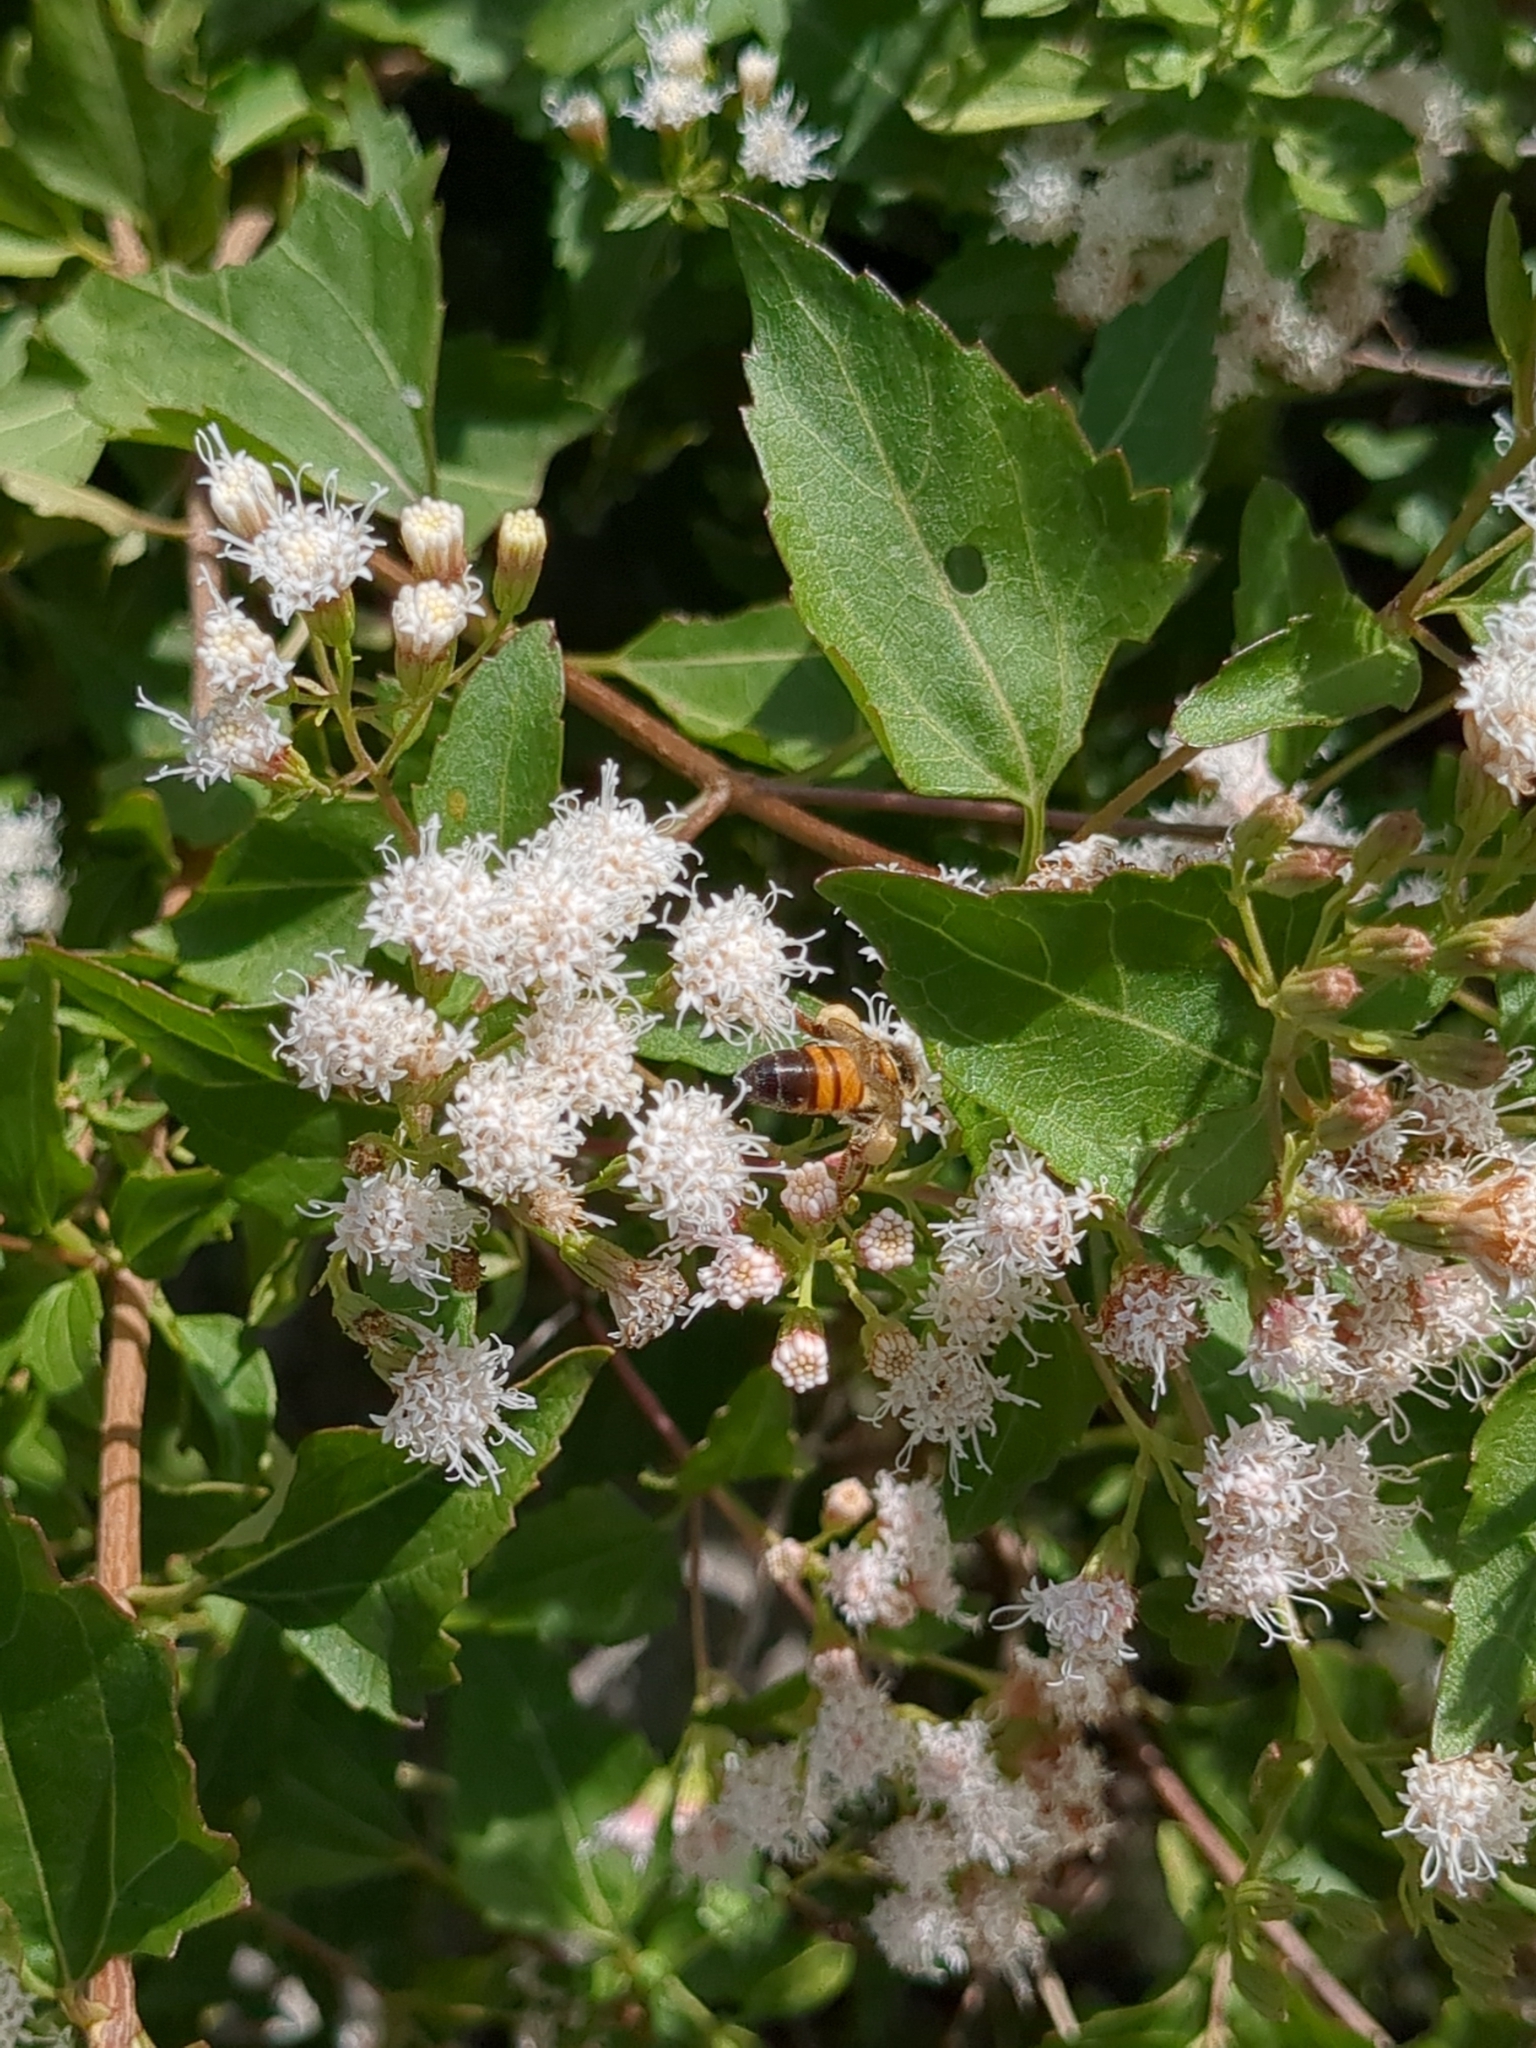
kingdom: Animalia
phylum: Arthropoda
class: Insecta
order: Hymenoptera
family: Apidae
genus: Apis
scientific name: Apis mellifera
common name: Honey bee
